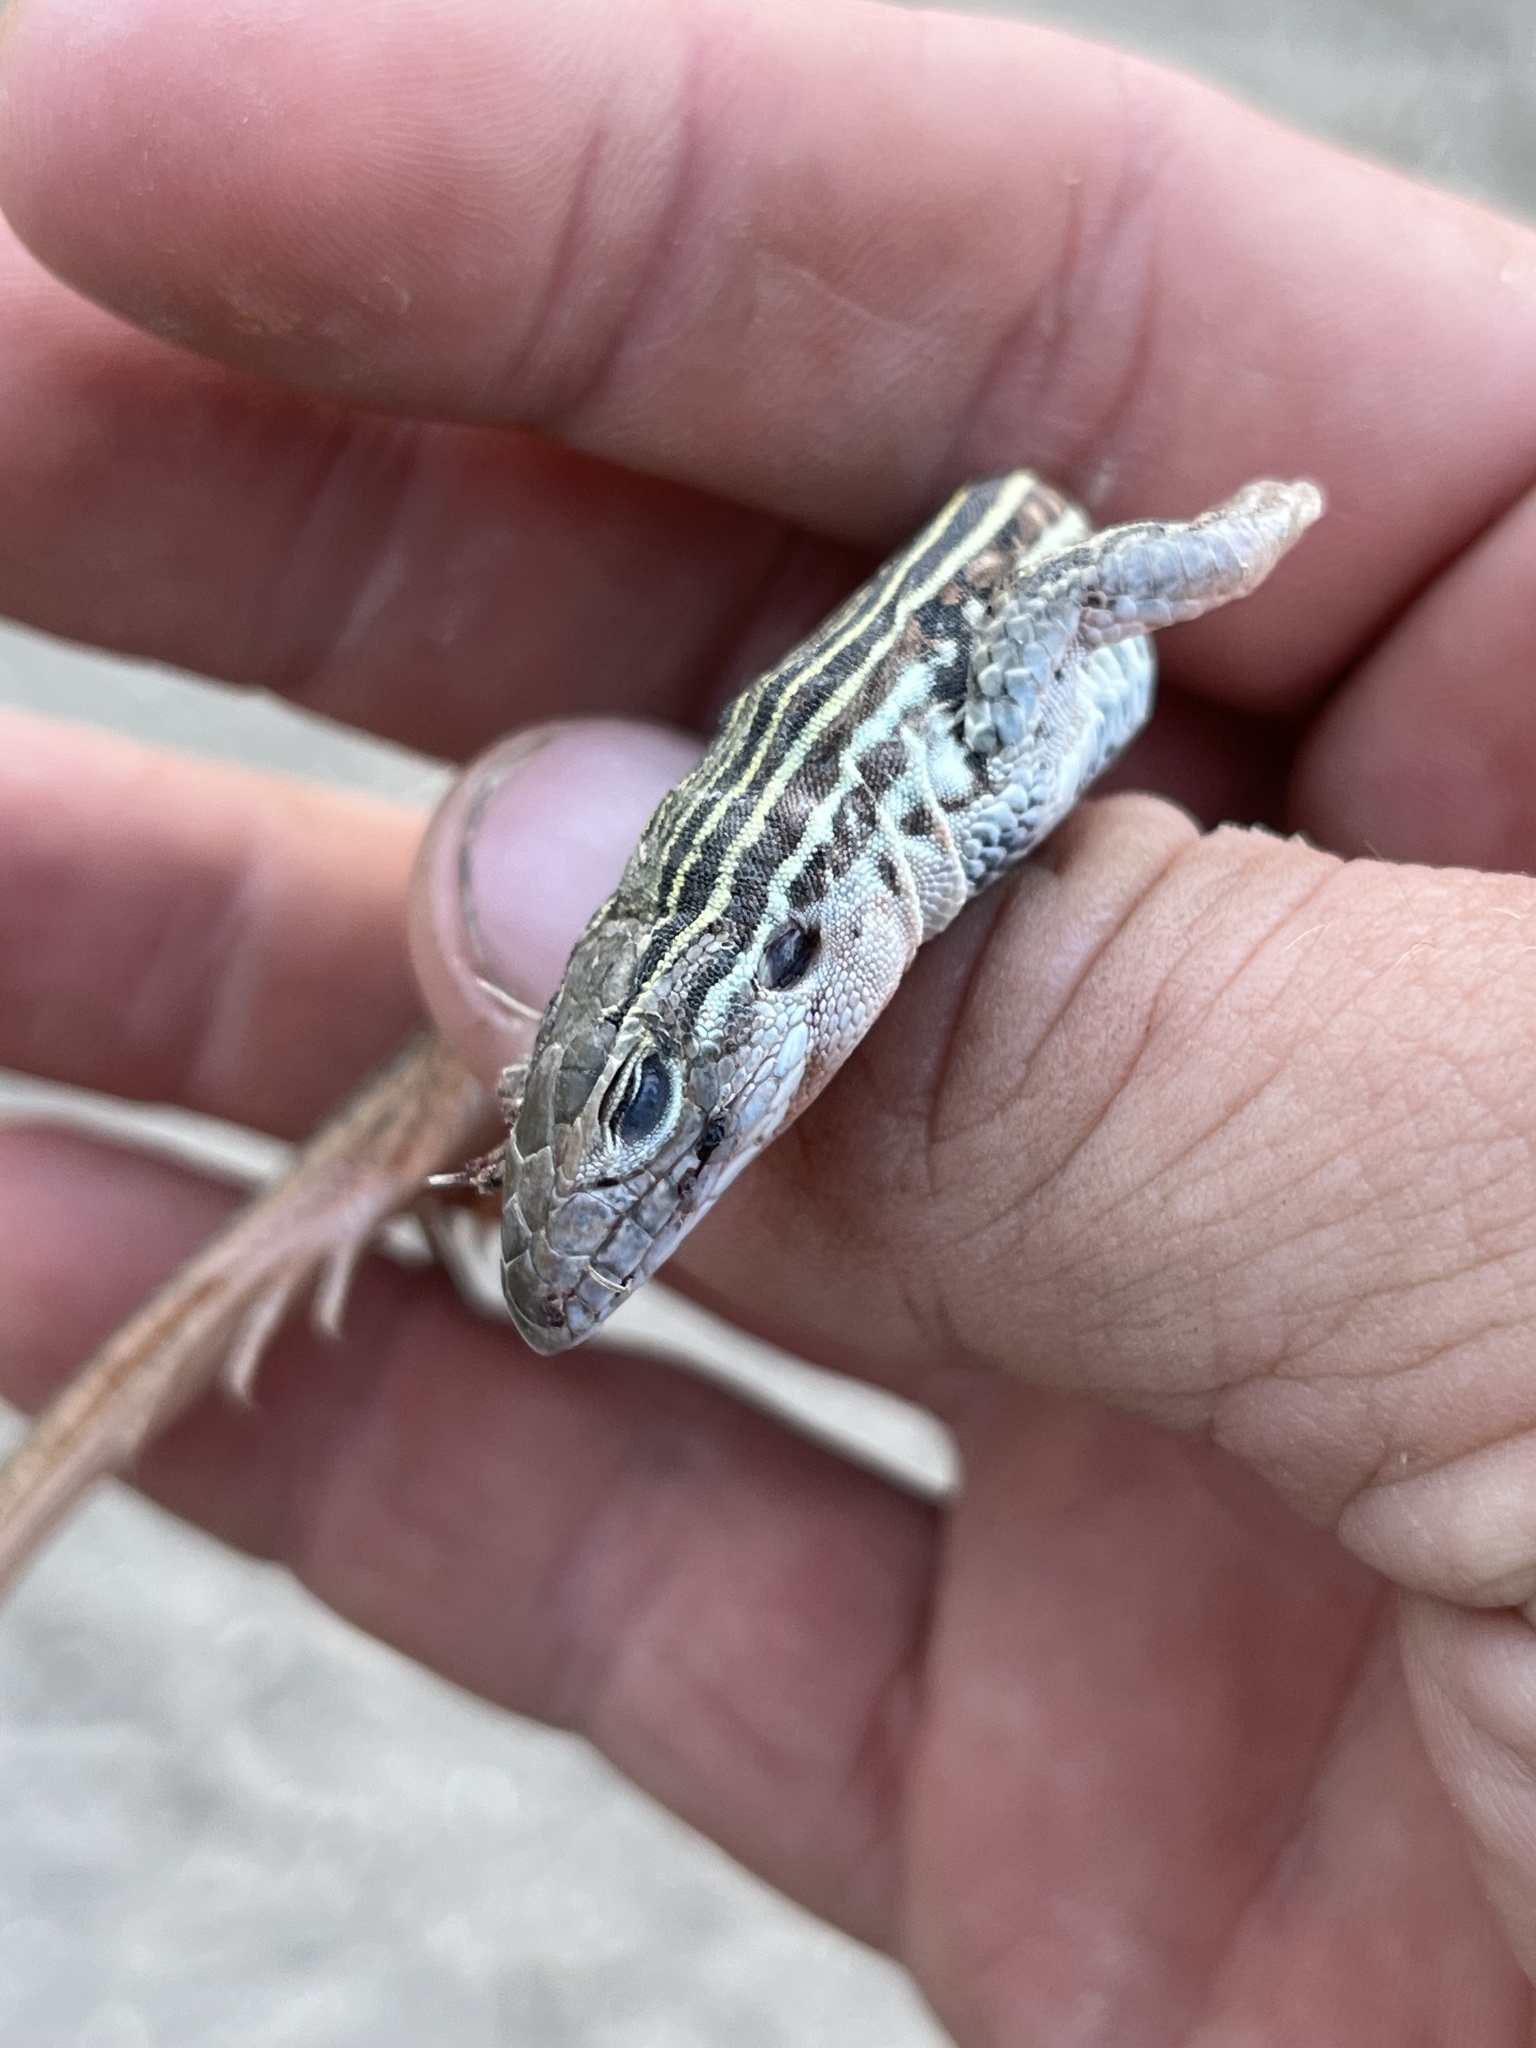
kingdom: Animalia
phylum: Chordata
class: Squamata
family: Teiidae
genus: Aspidoscelis
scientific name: Aspidoscelis gularis
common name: Eastern spotted whiptail
